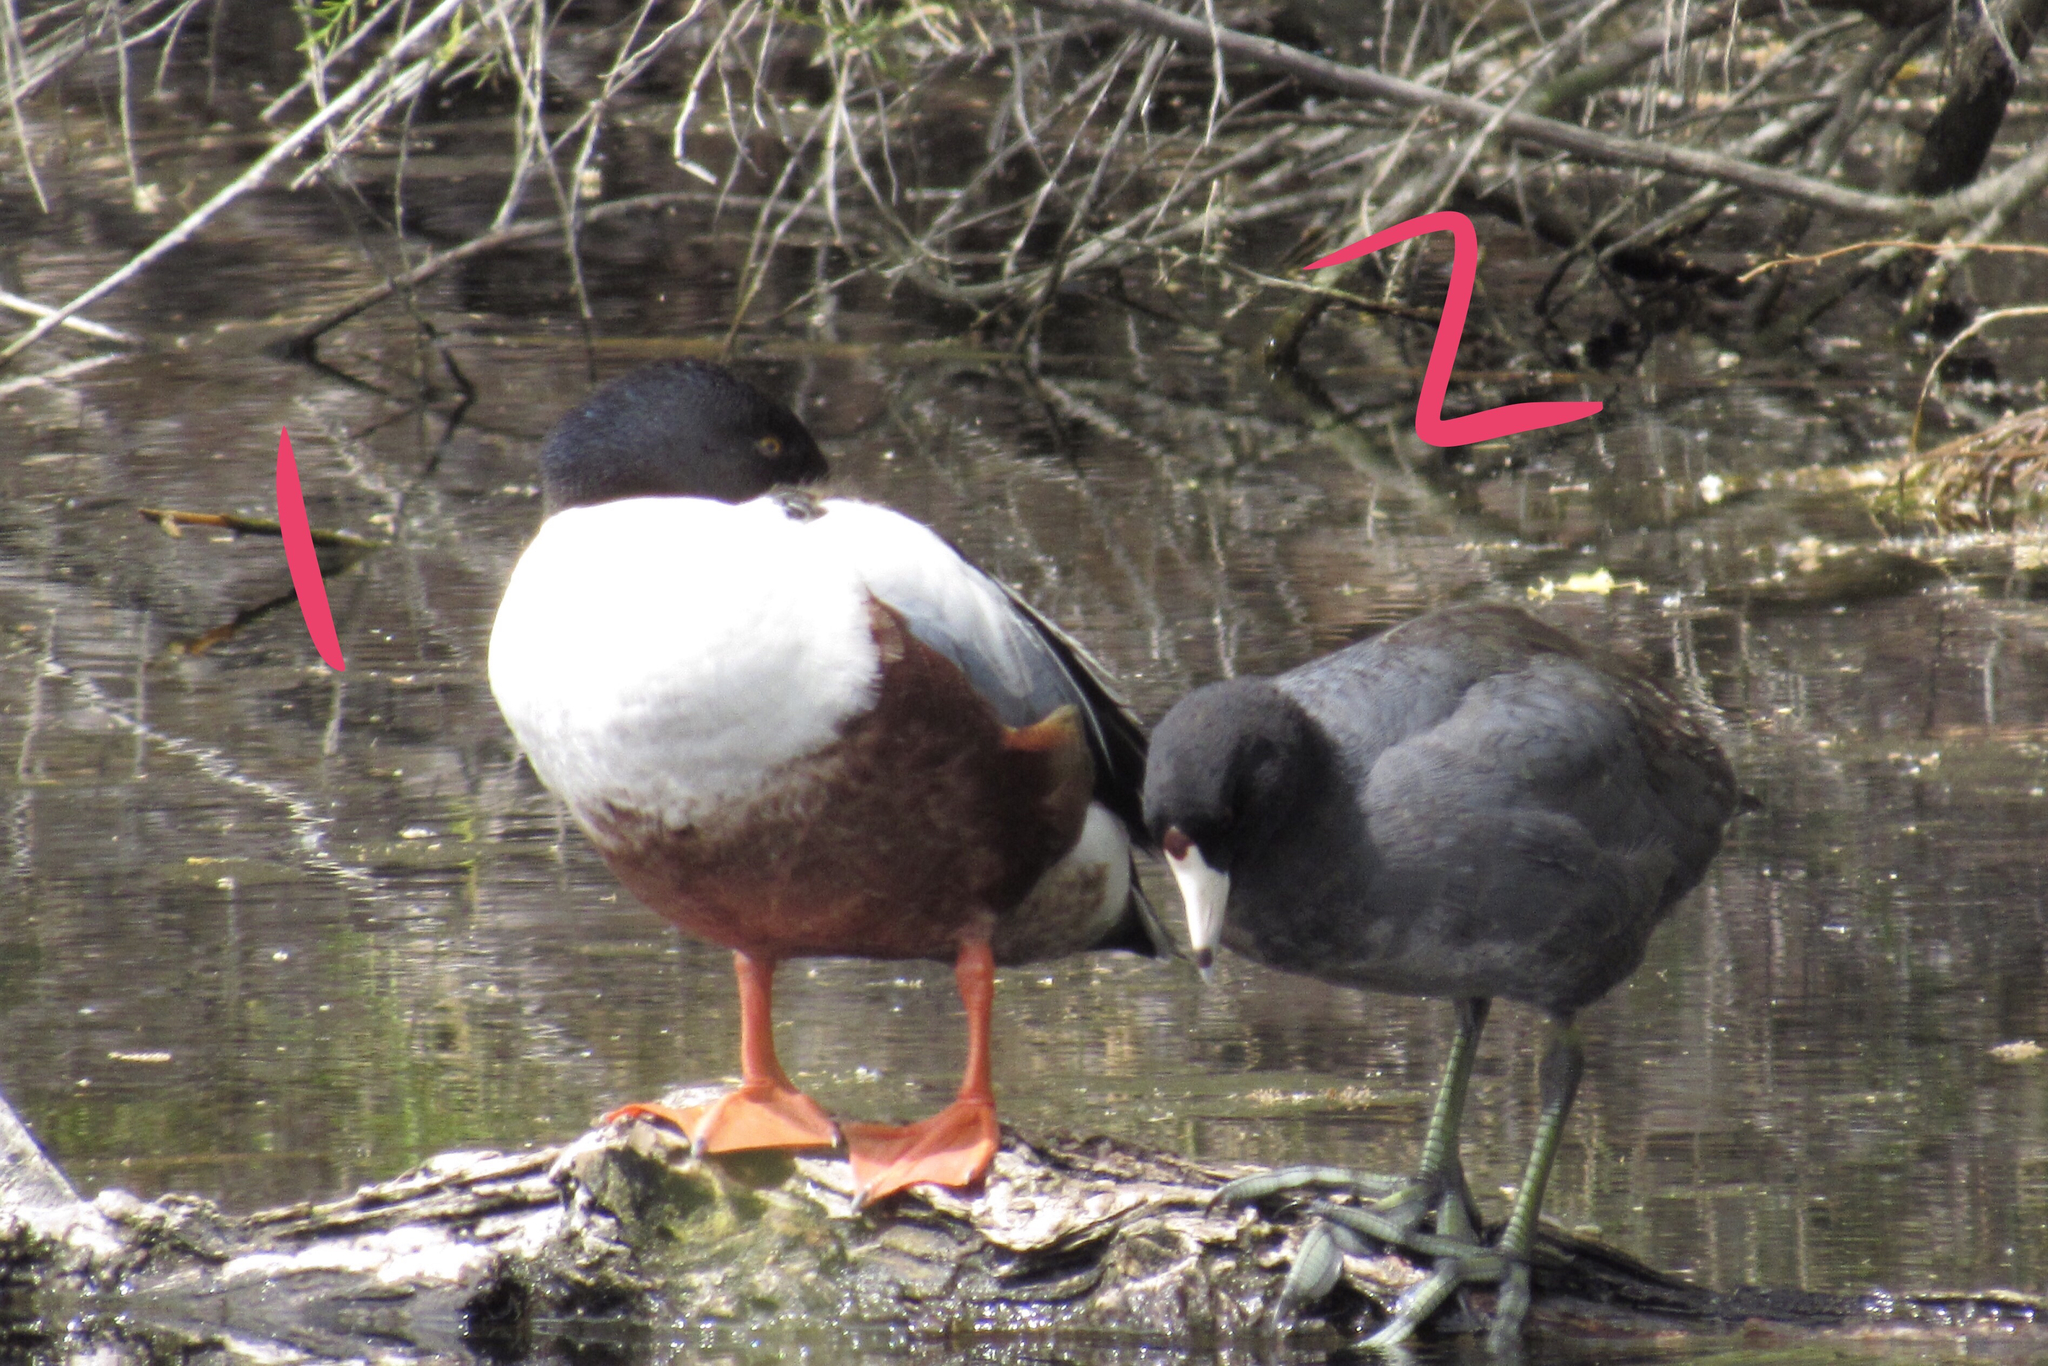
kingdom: Animalia
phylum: Chordata
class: Aves
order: Anseriformes
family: Anatidae
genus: Spatula
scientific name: Spatula clypeata
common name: Northern shoveler
